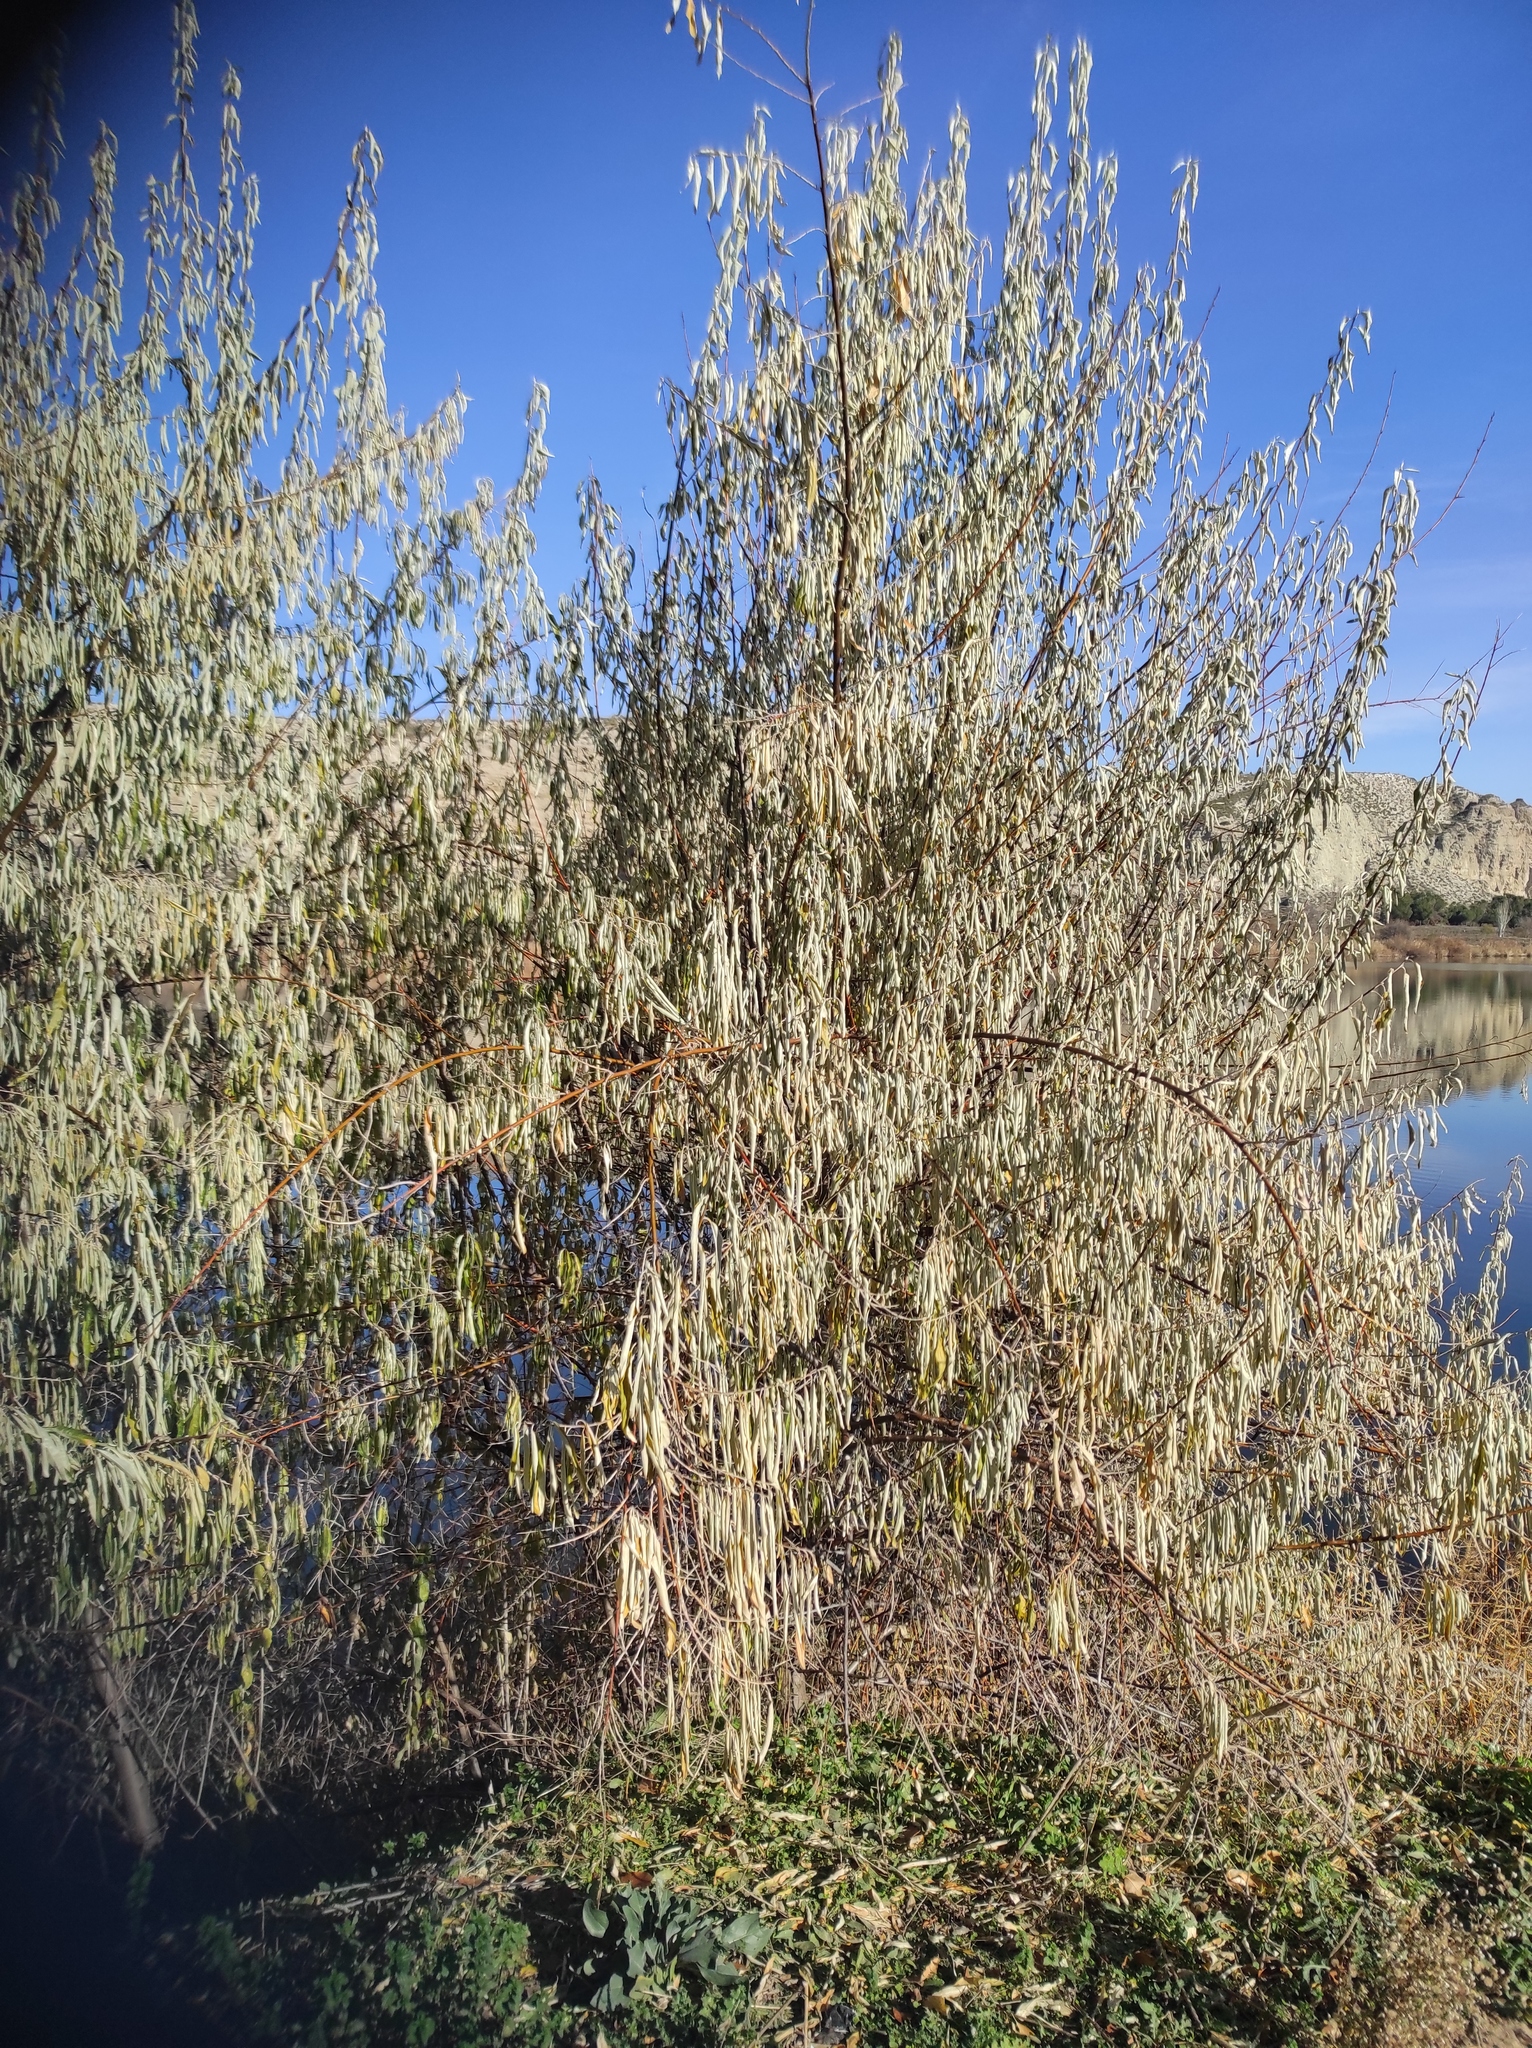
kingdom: Plantae
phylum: Tracheophyta
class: Magnoliopsida
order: Rosales
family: Elaeagnaceae
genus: Elaeagnus
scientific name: Elaeagnus angustifolia
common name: Russian olive
